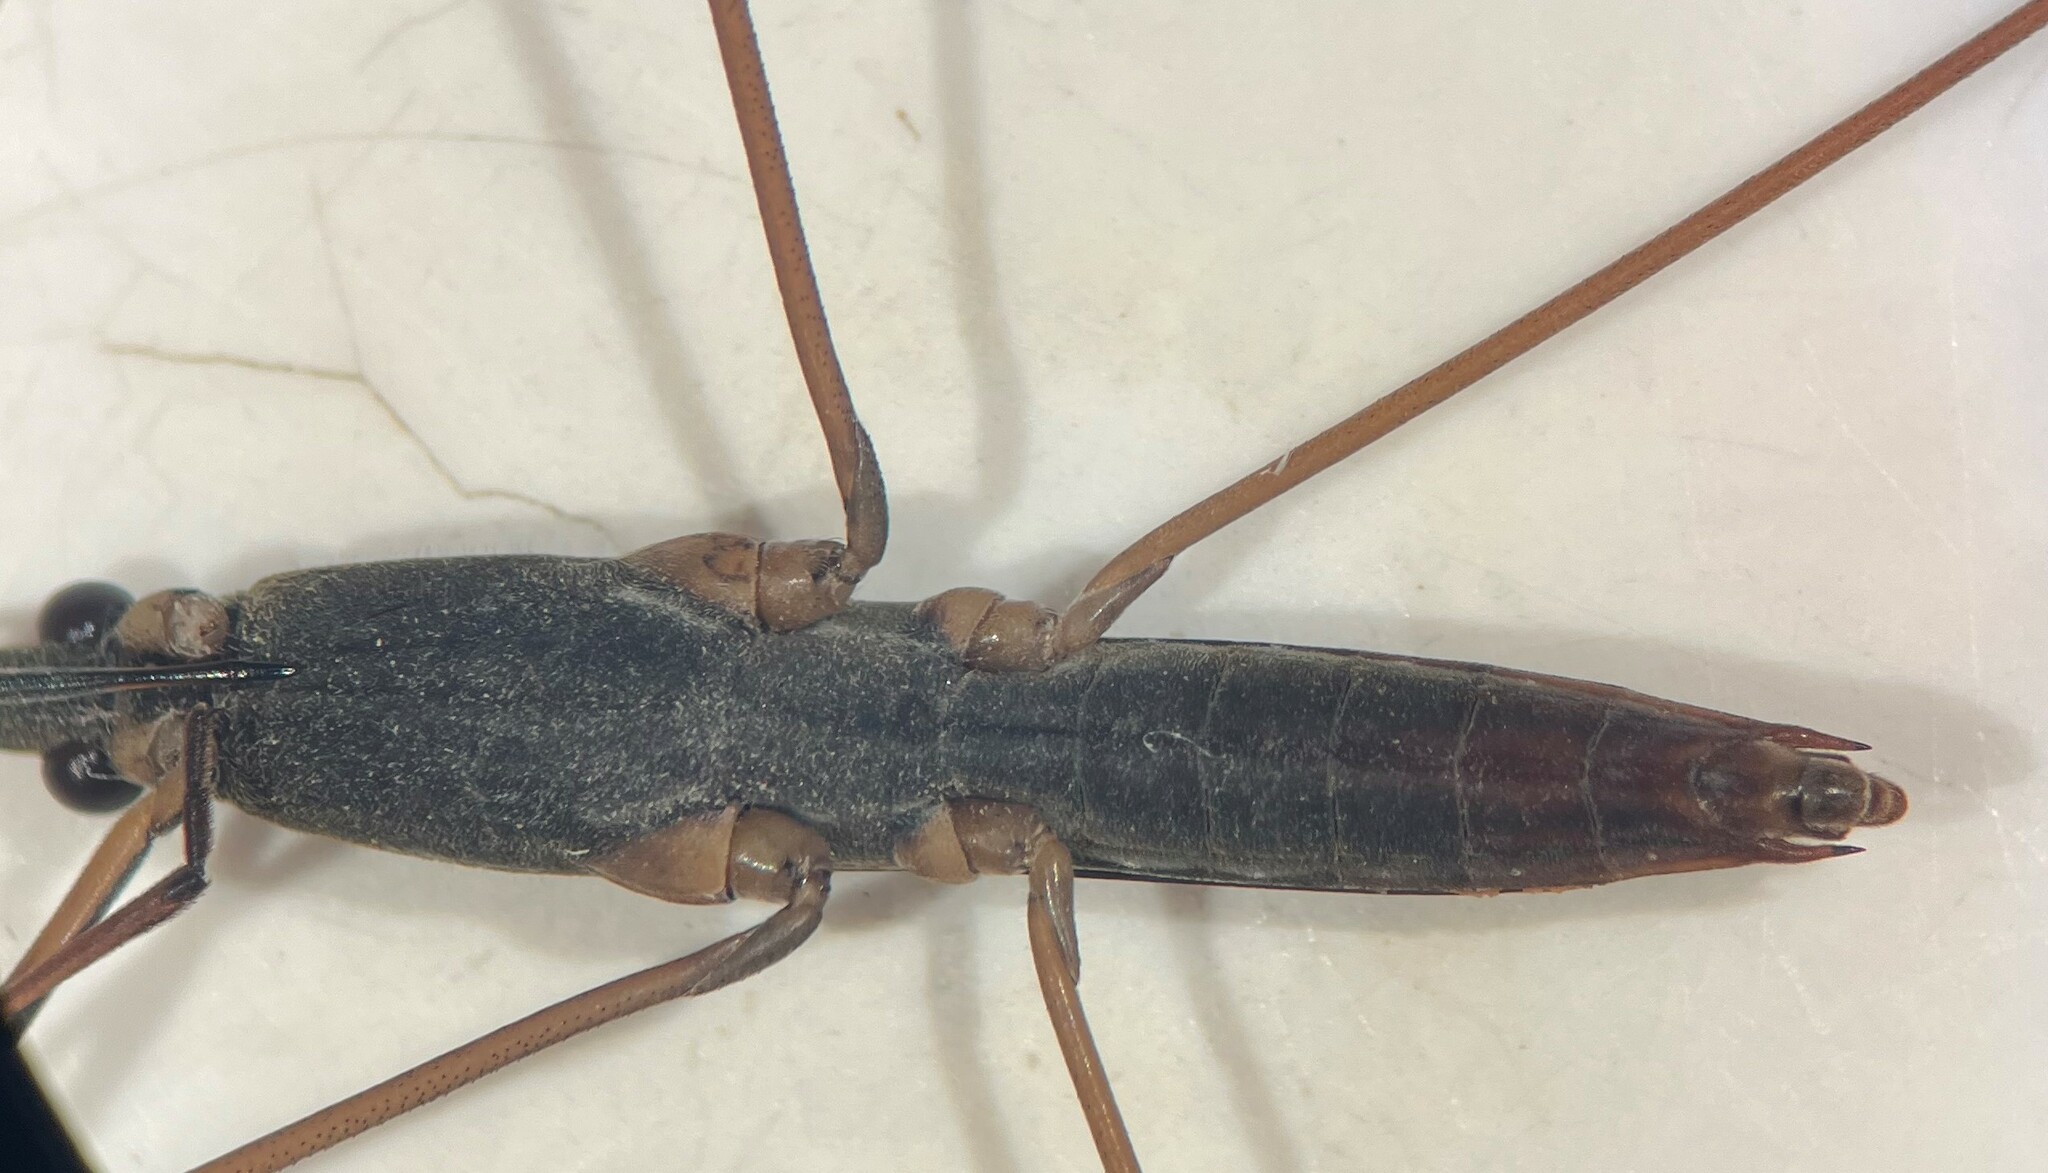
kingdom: Animalia
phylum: Arthropoda
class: Insecta
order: Hemiptera
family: Gerridae
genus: Limnoporus
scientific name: Limnoporus notabilis
